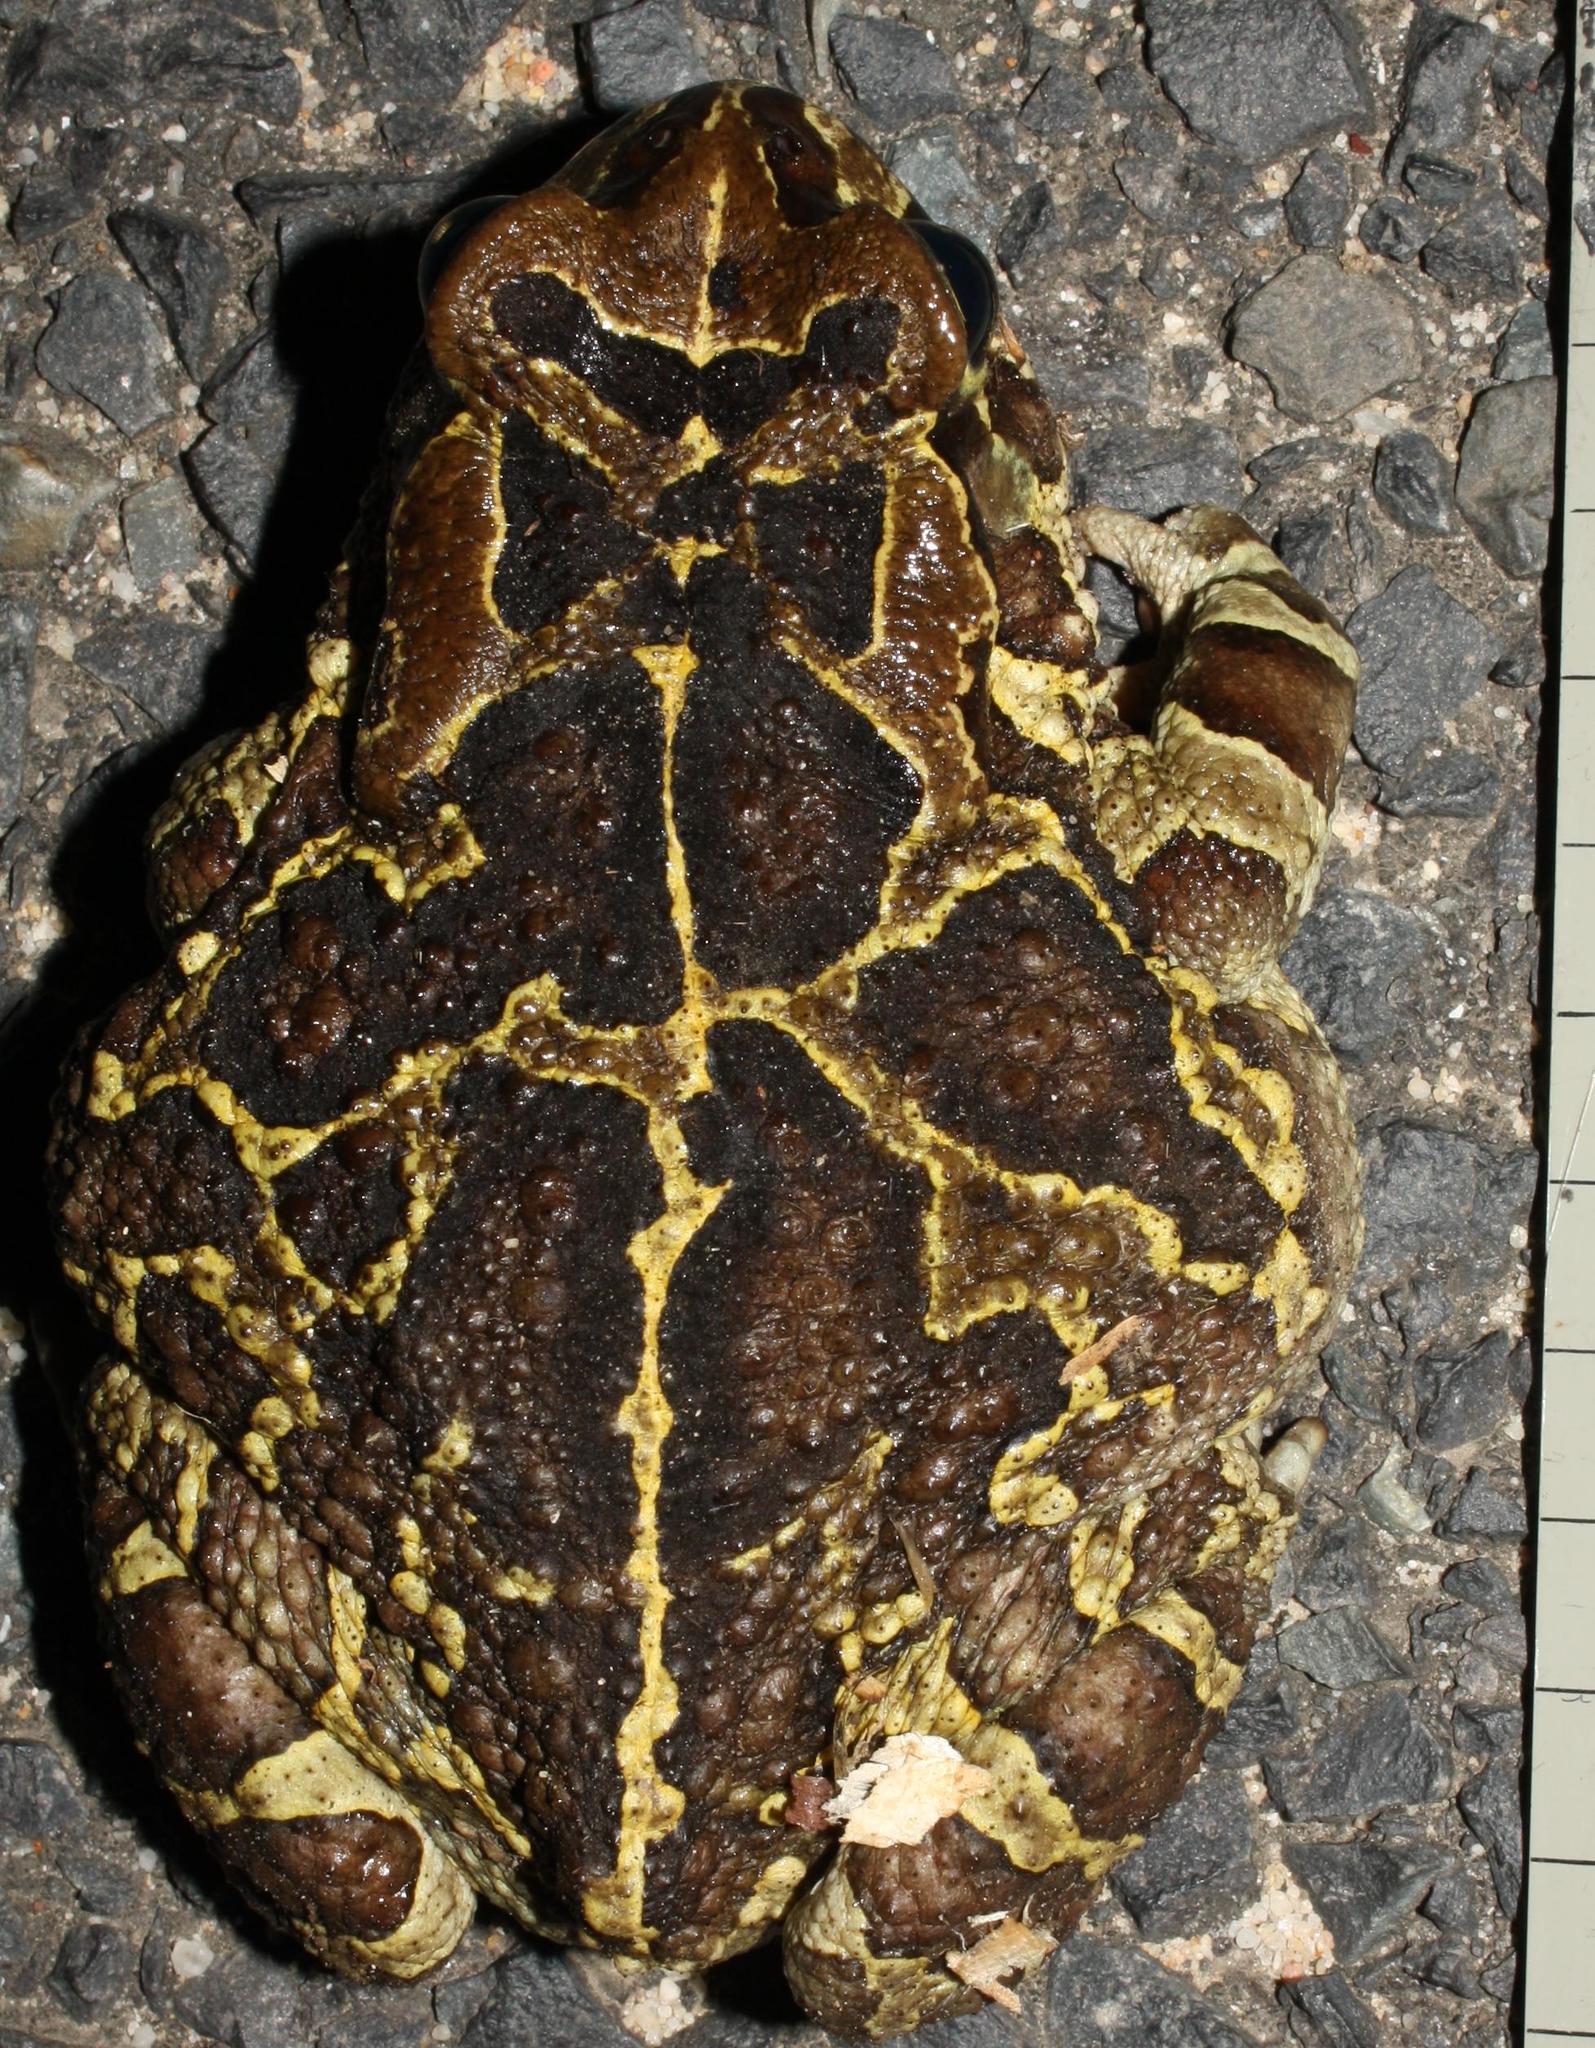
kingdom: Animalia
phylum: Chordata
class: Amphibia
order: Anura
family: Bufonidae
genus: Sclerophrys
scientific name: Sclerophrys pantherina
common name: Panther toad
